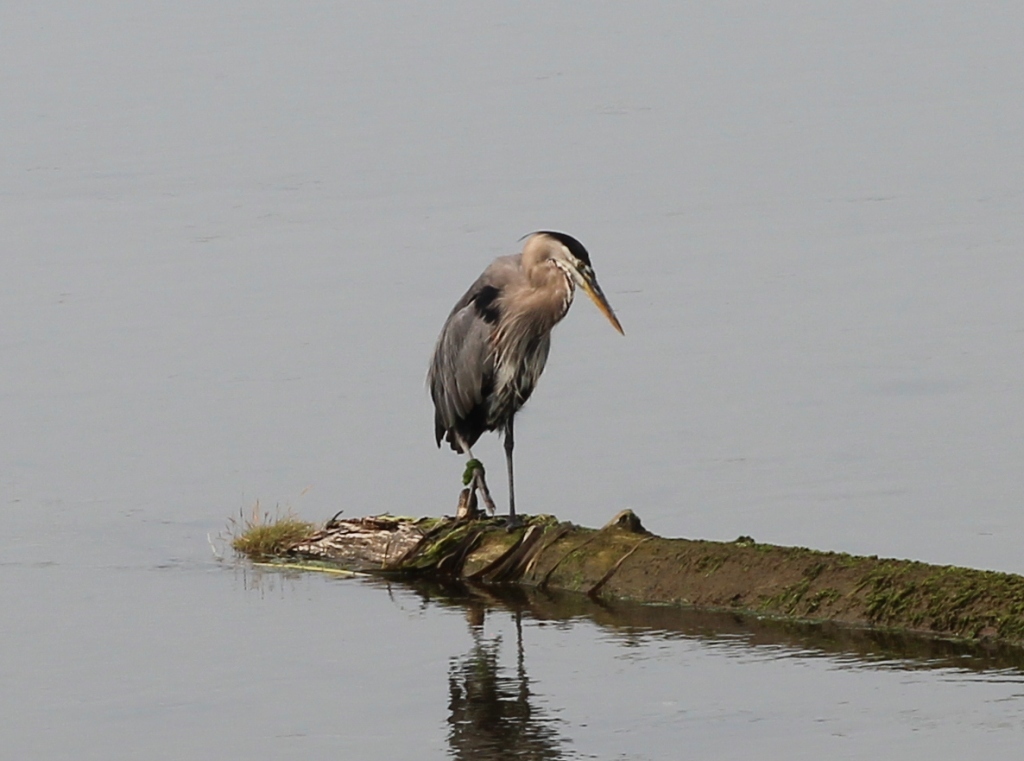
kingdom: Animalia
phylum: Chordata
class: Aves
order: Pelecaniformes
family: Ardeidae
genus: Ardea
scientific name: Ardea herodias
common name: Great blue heron
